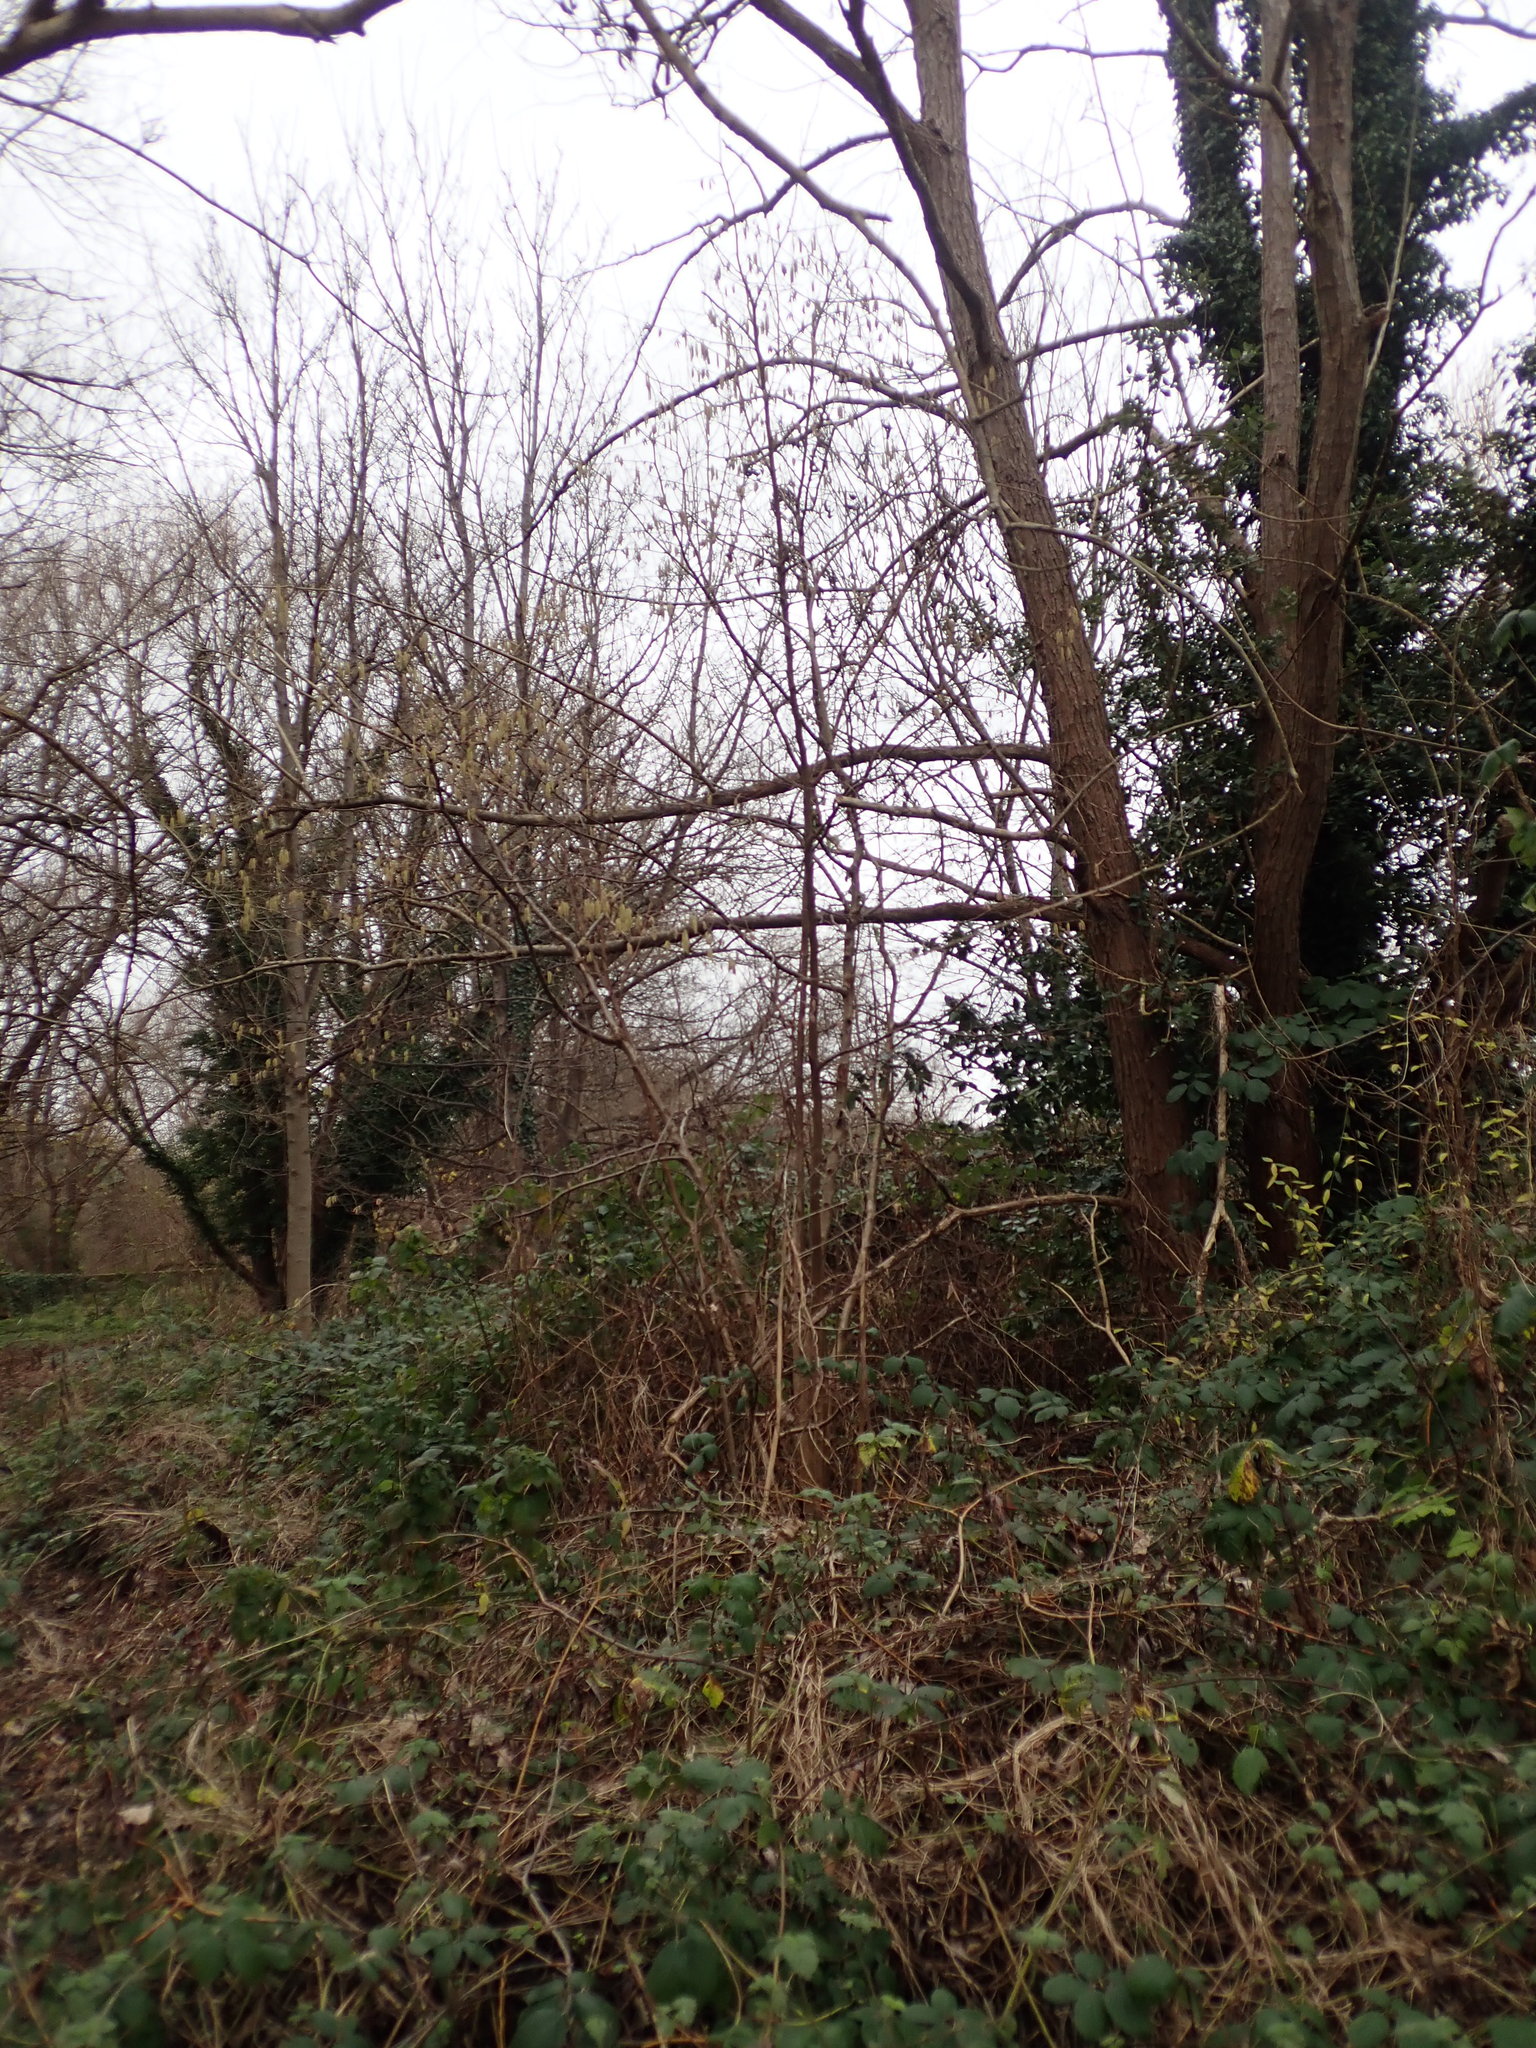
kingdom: Plantae
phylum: Tracheophyta
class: Magnoliopsida
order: Fagales
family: Betulaceae
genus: Corylus
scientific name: Corylus avellana
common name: European hazel
